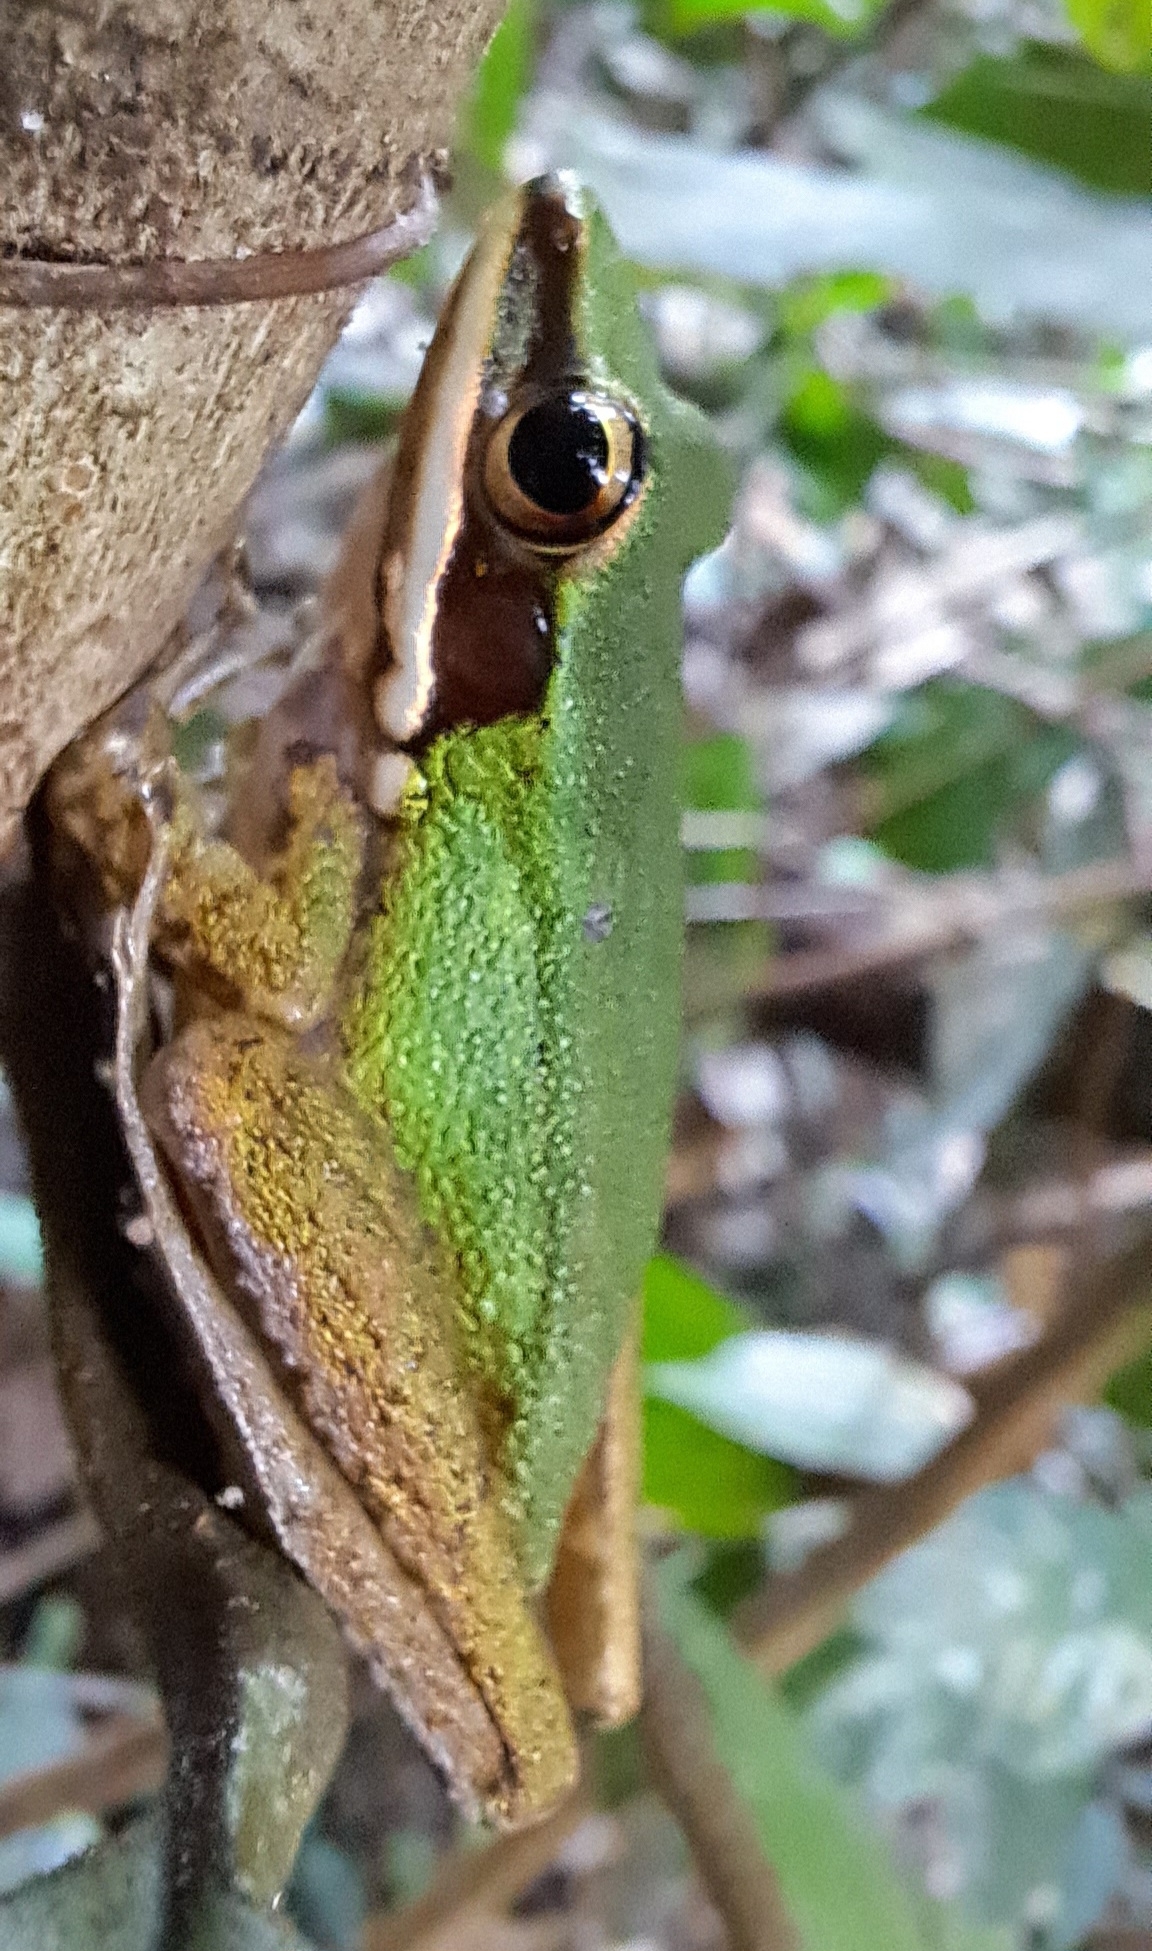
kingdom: Animalia
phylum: Chordata
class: Amphibia
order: Anura
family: Ranidae
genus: Chalcorana
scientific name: Chalcorana labialis
